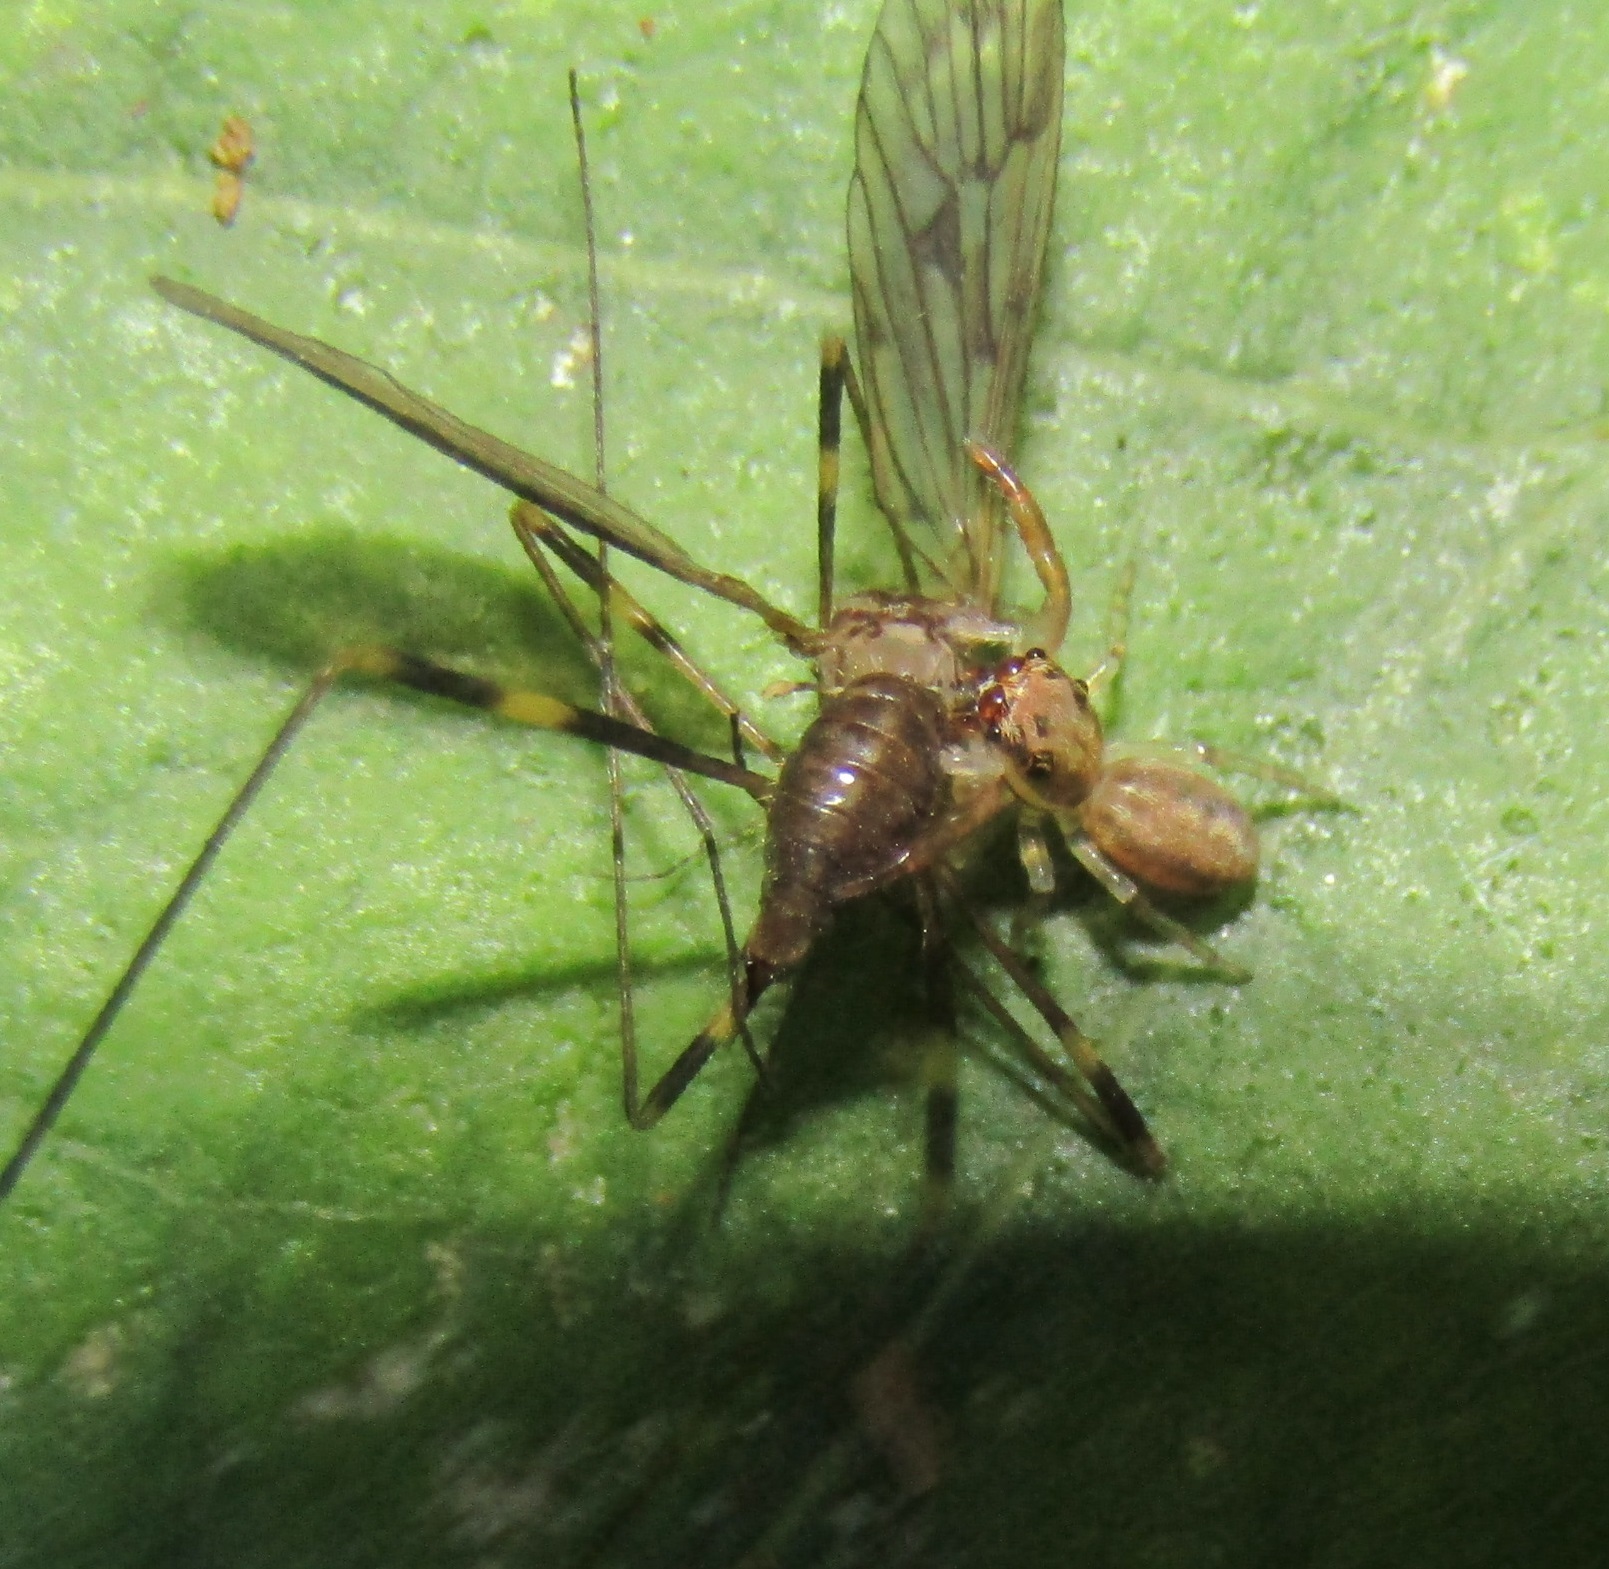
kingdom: Animalia
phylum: Arthropoda
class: Insecta
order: Diptera
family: Limoniidae
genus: Amphineurus
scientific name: Amphineurus fatuus
